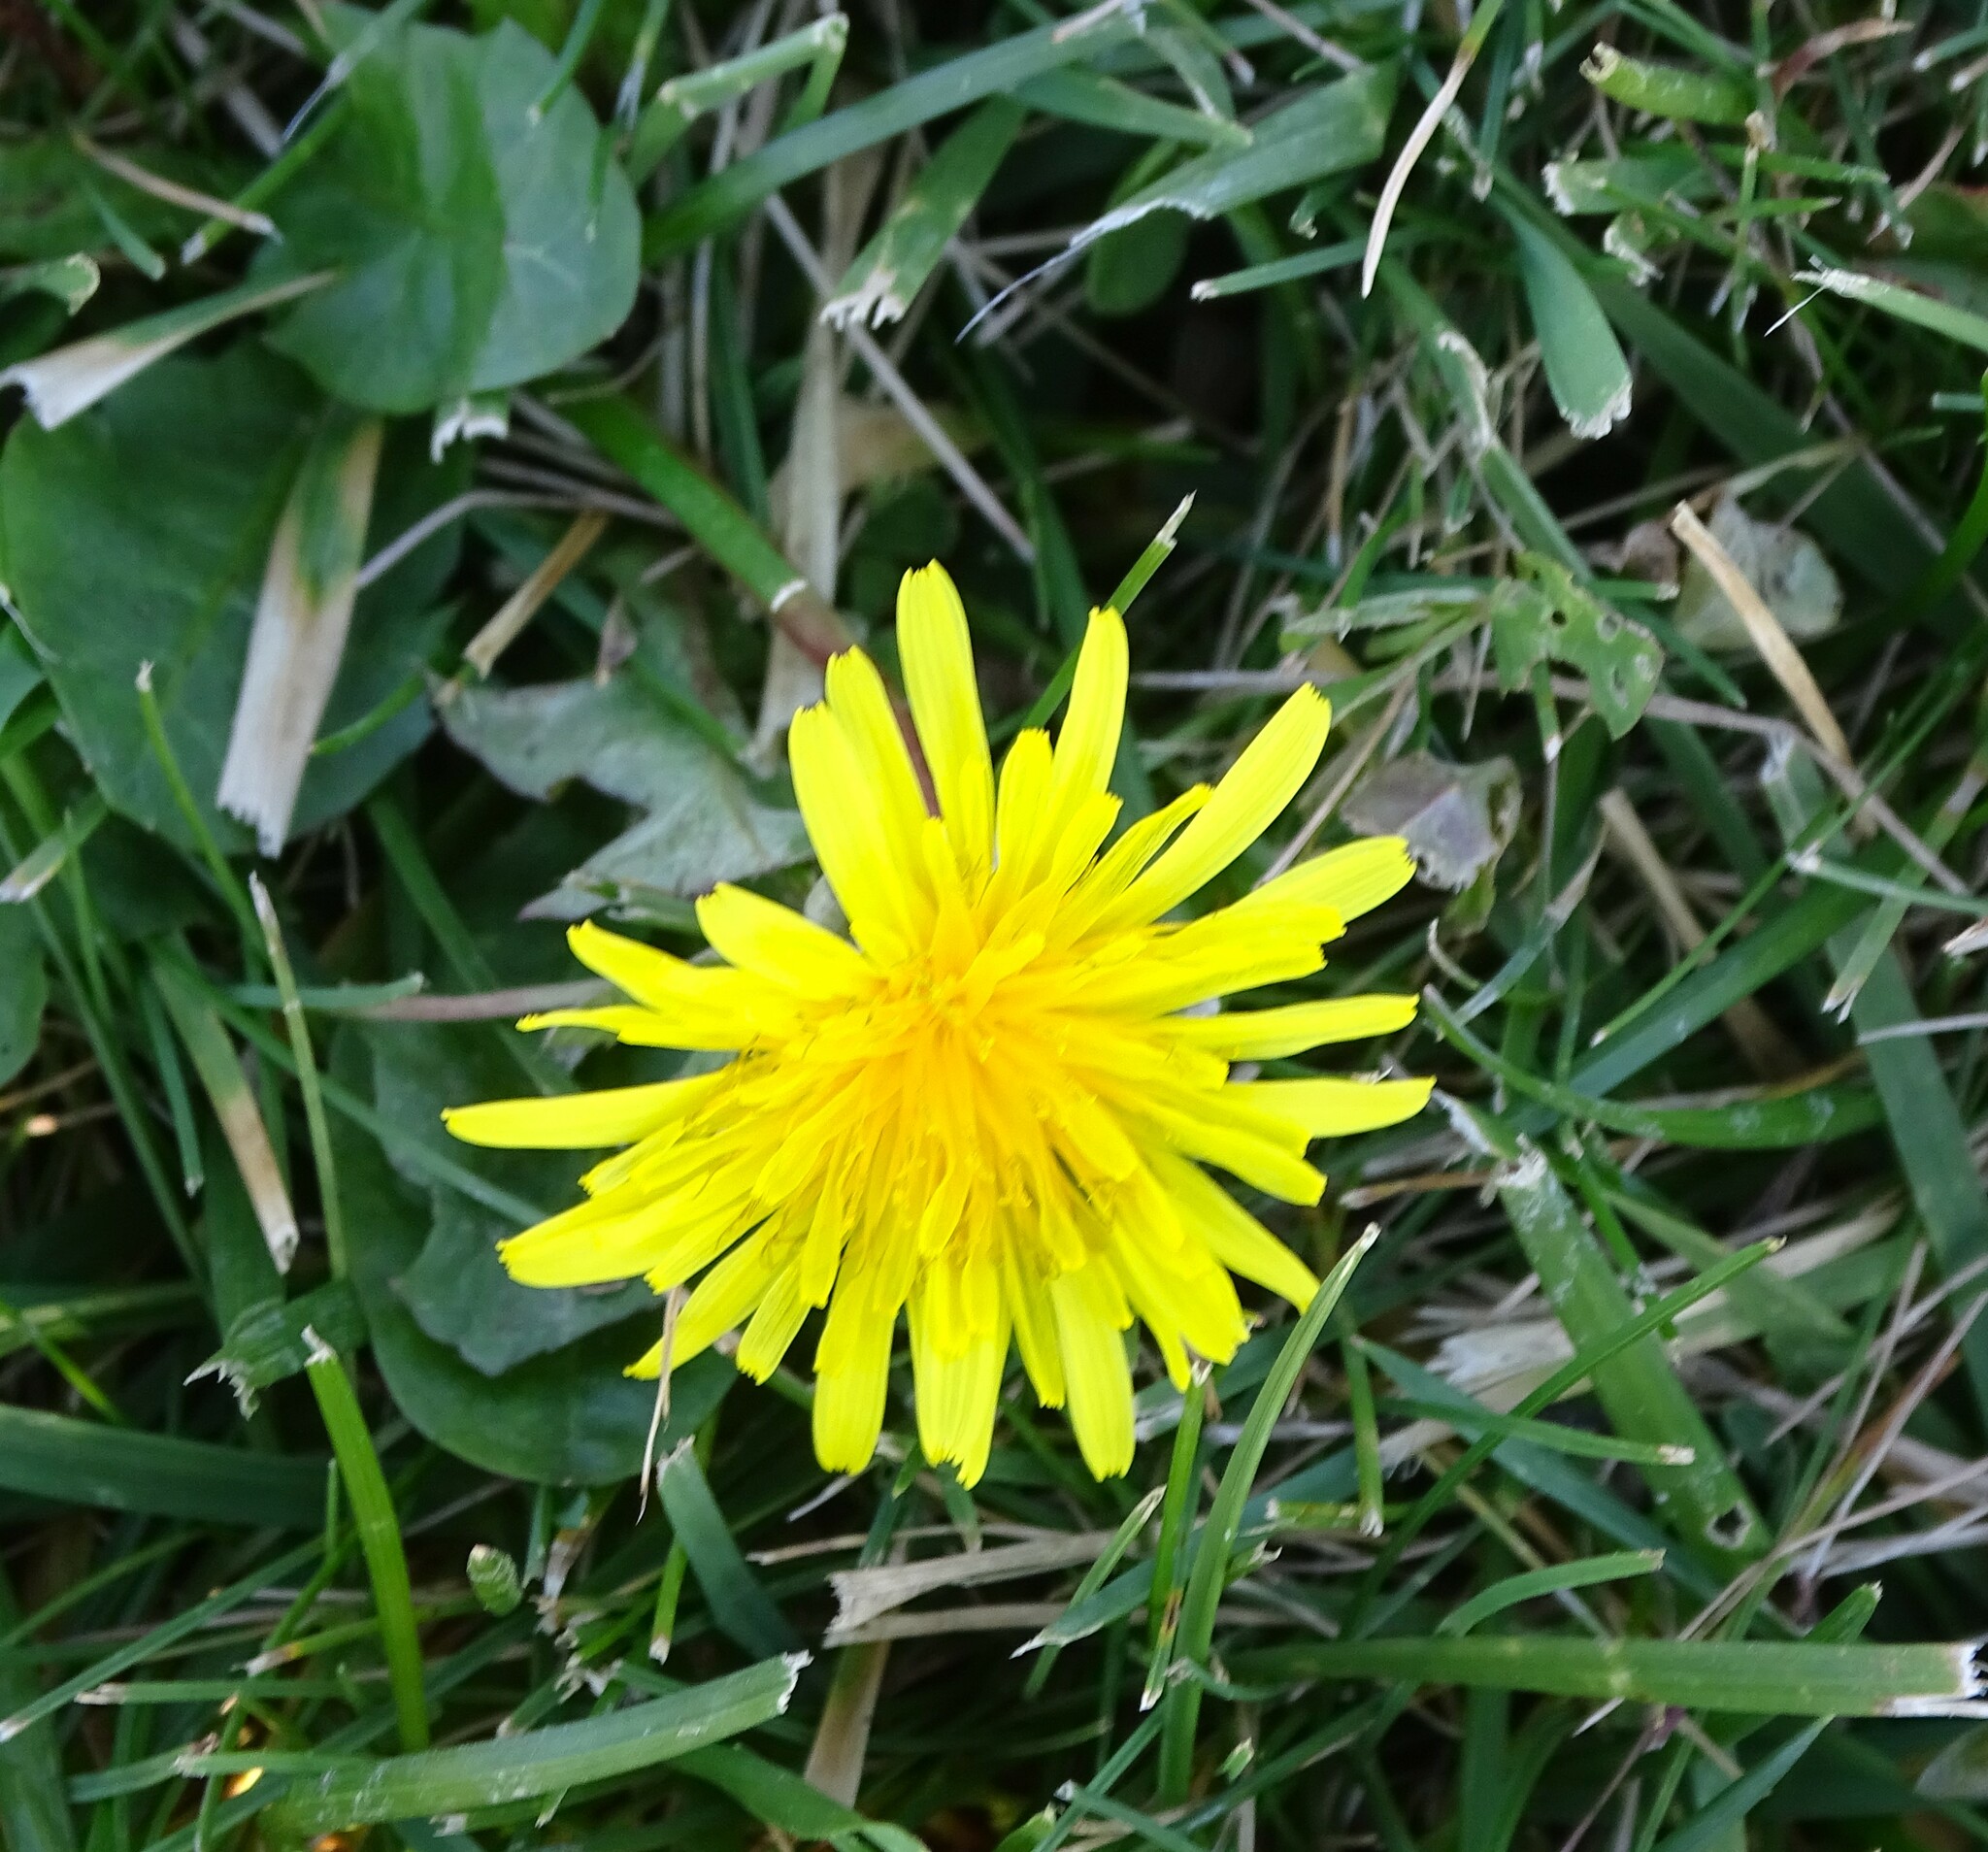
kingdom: Plantae
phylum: Tracheophyta
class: Magnoliopsida
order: Asterales
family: Asteraceae
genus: Taraxacum
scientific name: Taraxacum officinale
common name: Common dandelion
